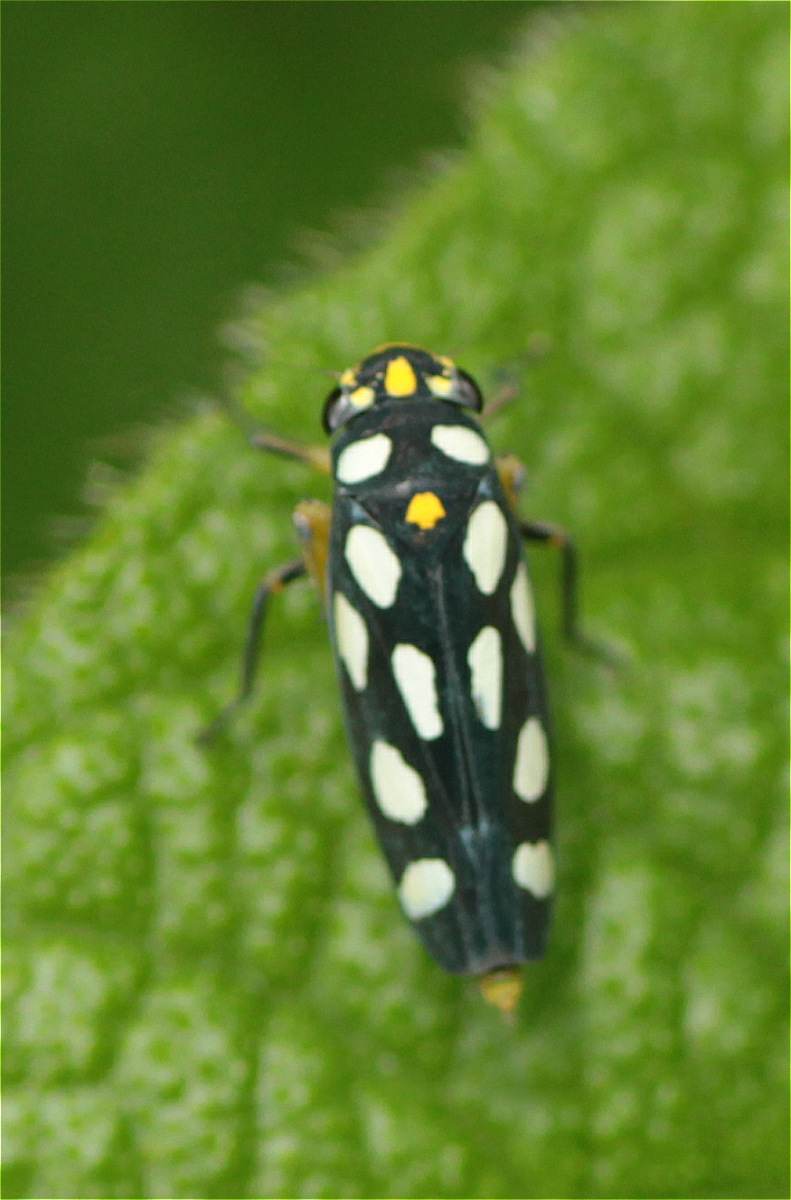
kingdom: Animalia
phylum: Arthropoda
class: Insecta
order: Hemiptera
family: Cicadellidae
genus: Stehlikiana
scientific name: Stehlikiana crassa
